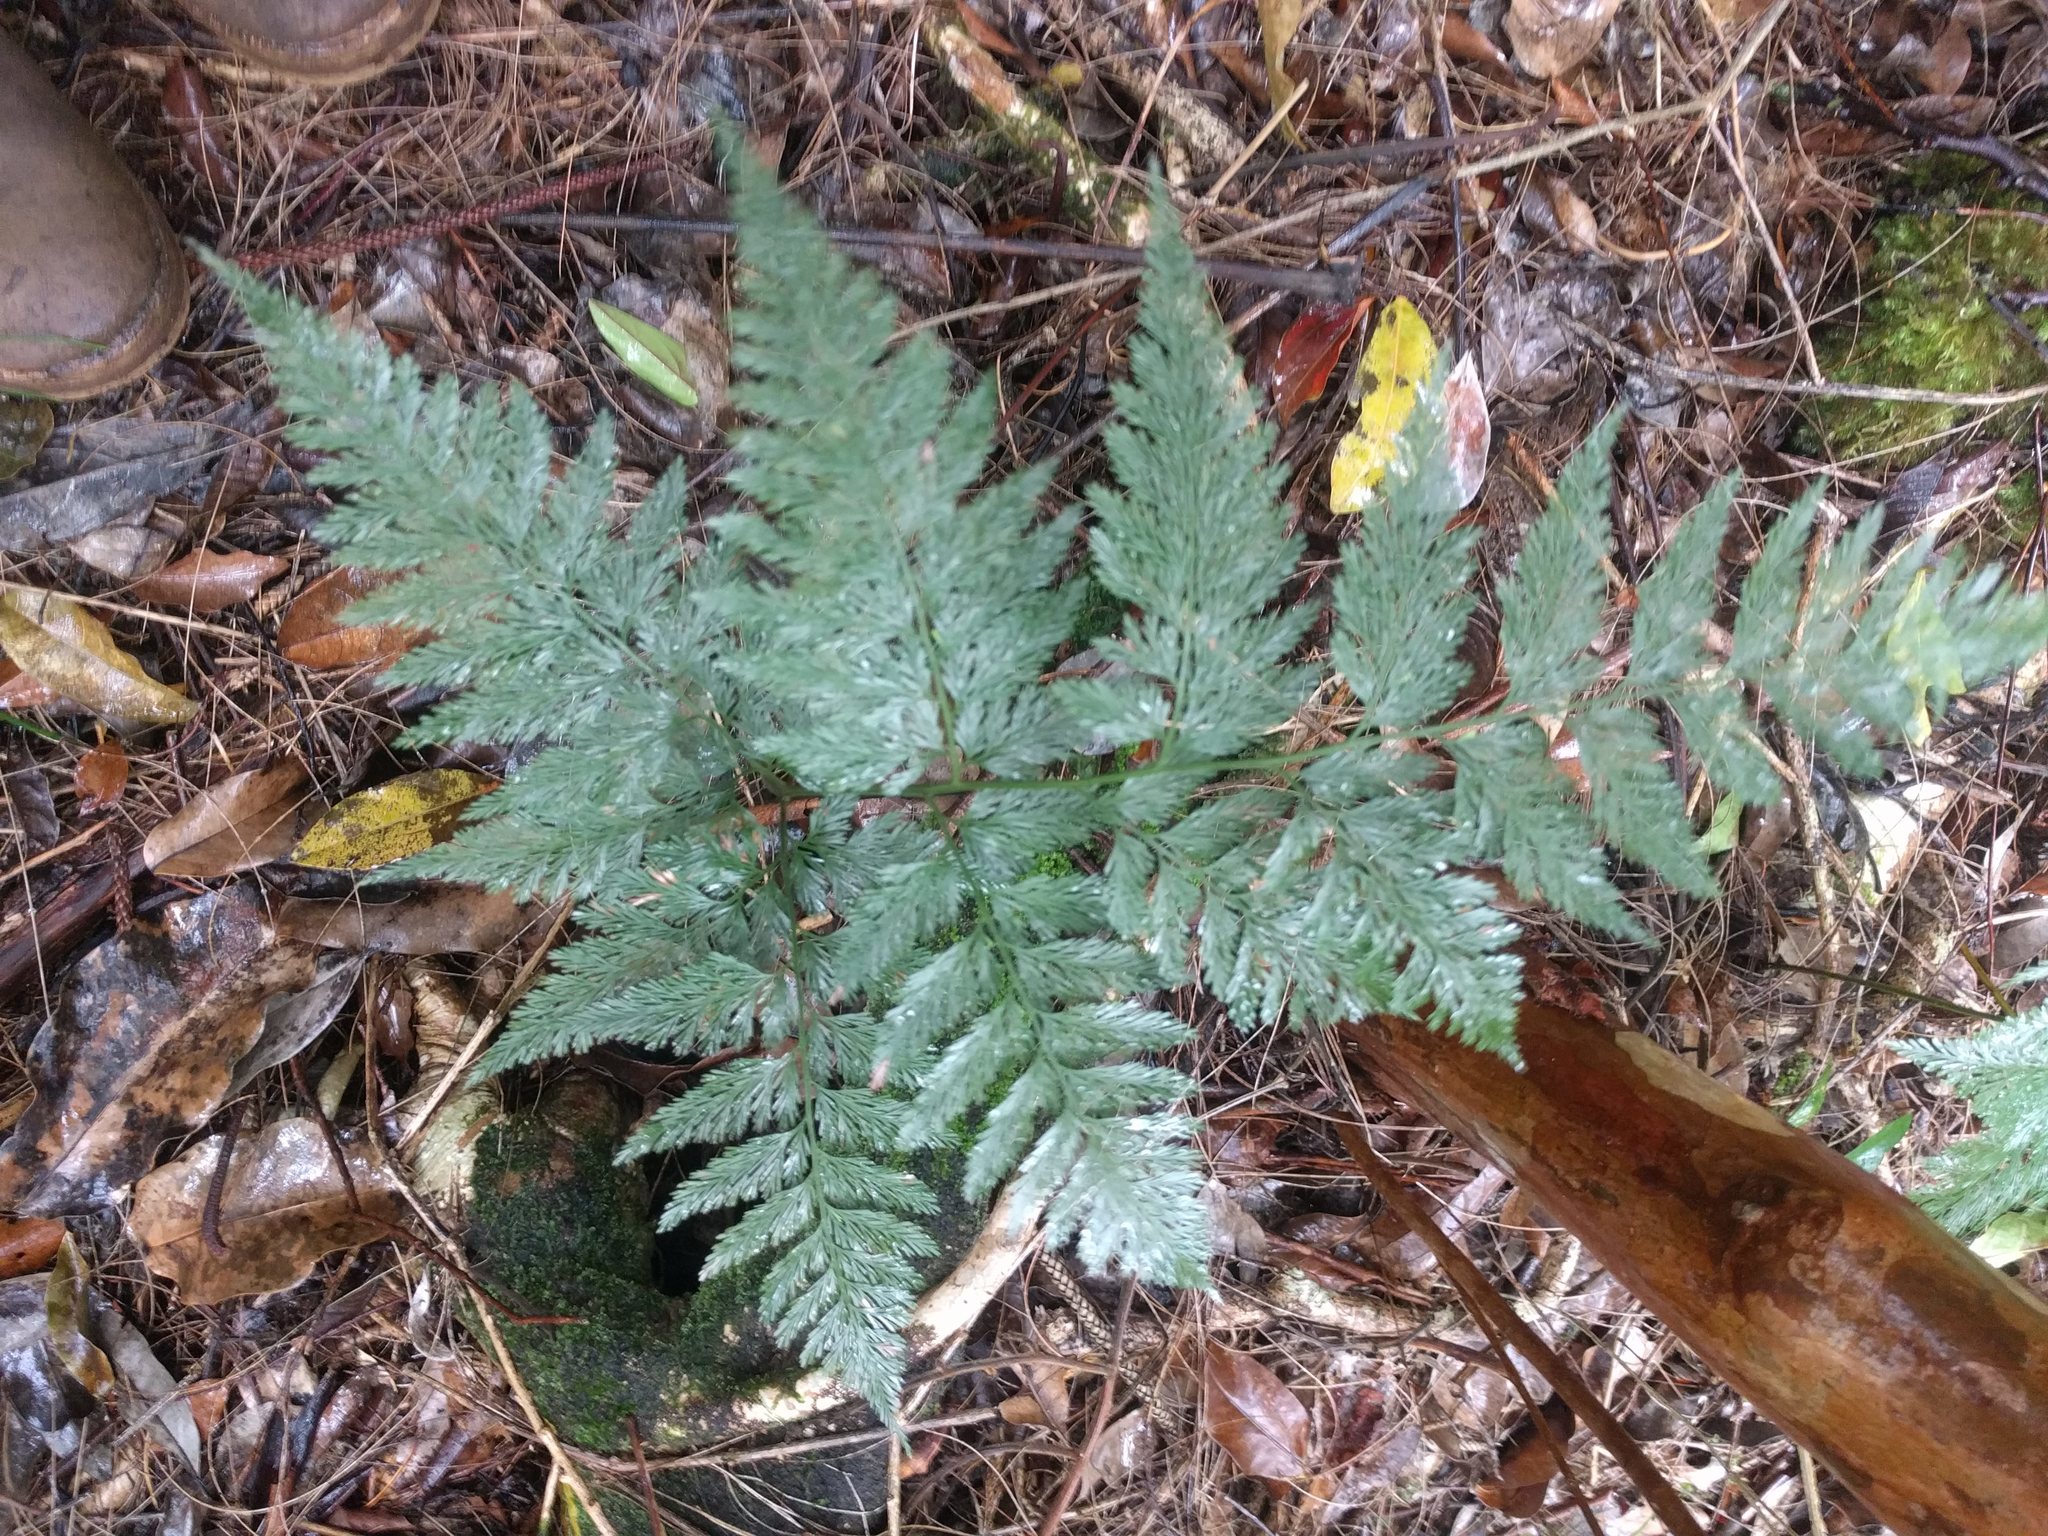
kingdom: Plantae
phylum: Tracheophyta
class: Polypodiopsida
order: Polypodiales
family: Davalliaceae
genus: Davallia
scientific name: Davallia fejeensis
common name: Lacy hare's-foot fern
